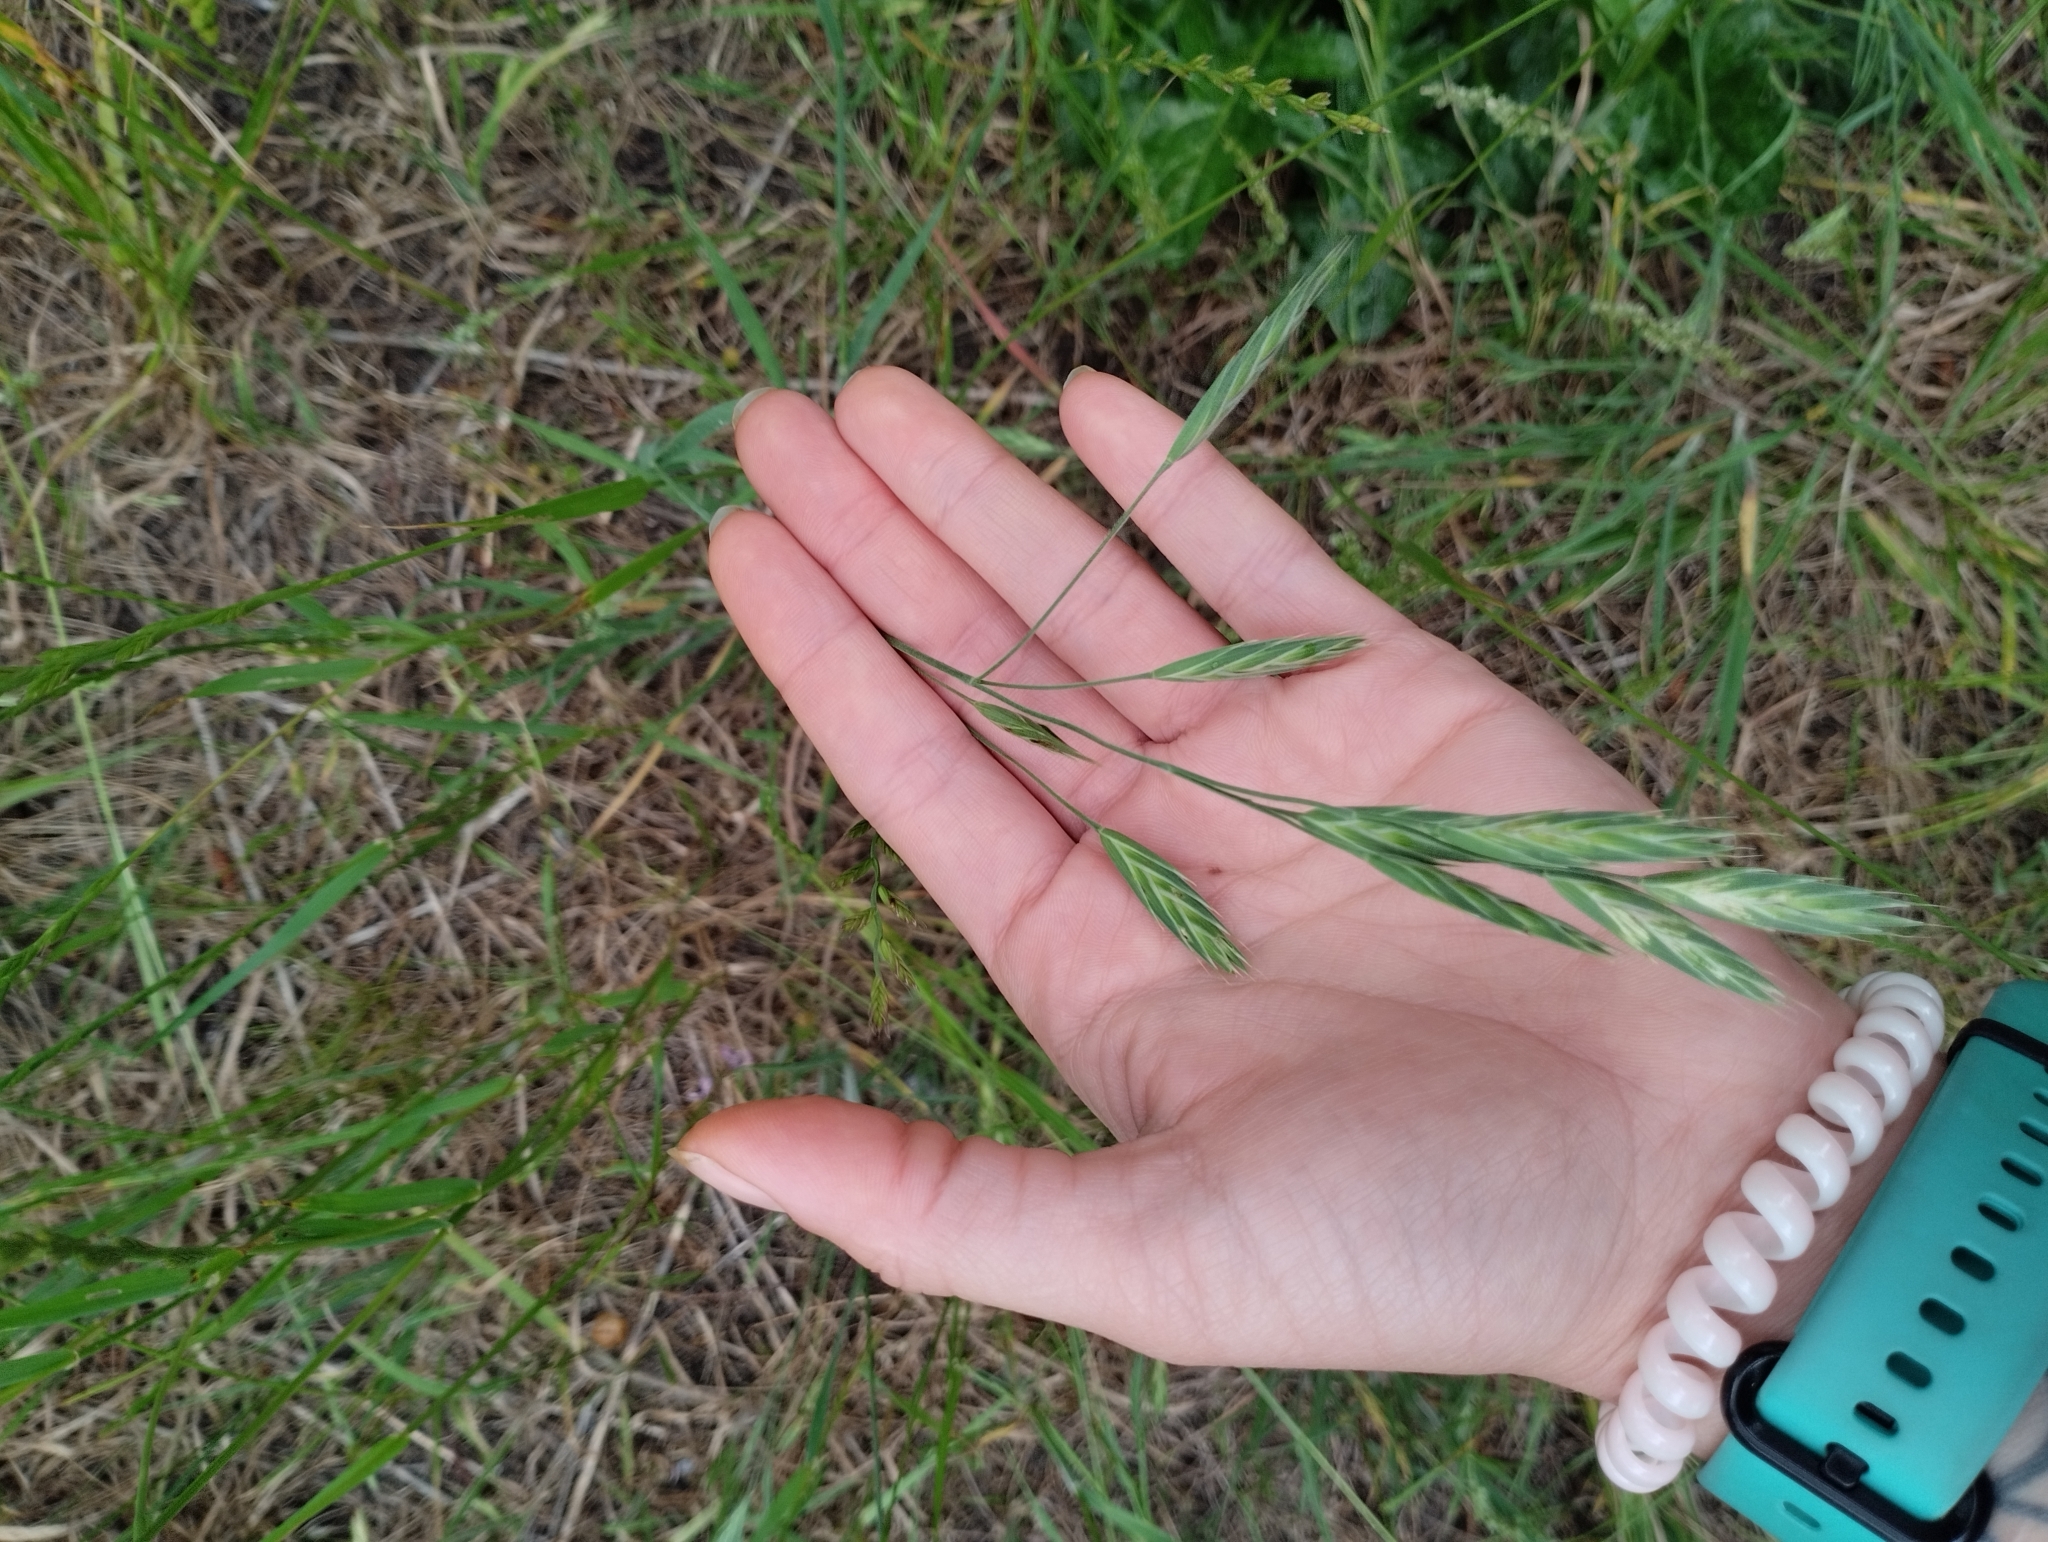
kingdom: Plantae
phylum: Tracheophyta
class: Liliopsida
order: Poales
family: Poaceae
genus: Bromus
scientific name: Bromus catharticus
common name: Rescuegrass
